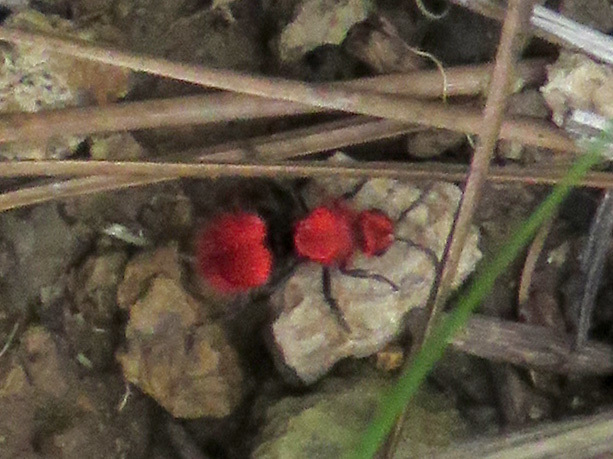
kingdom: Animalia
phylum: Arthropoda
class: Insecta
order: Hymenoptera
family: Mutillidae
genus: Dasymutilla
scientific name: Dasymutilla
